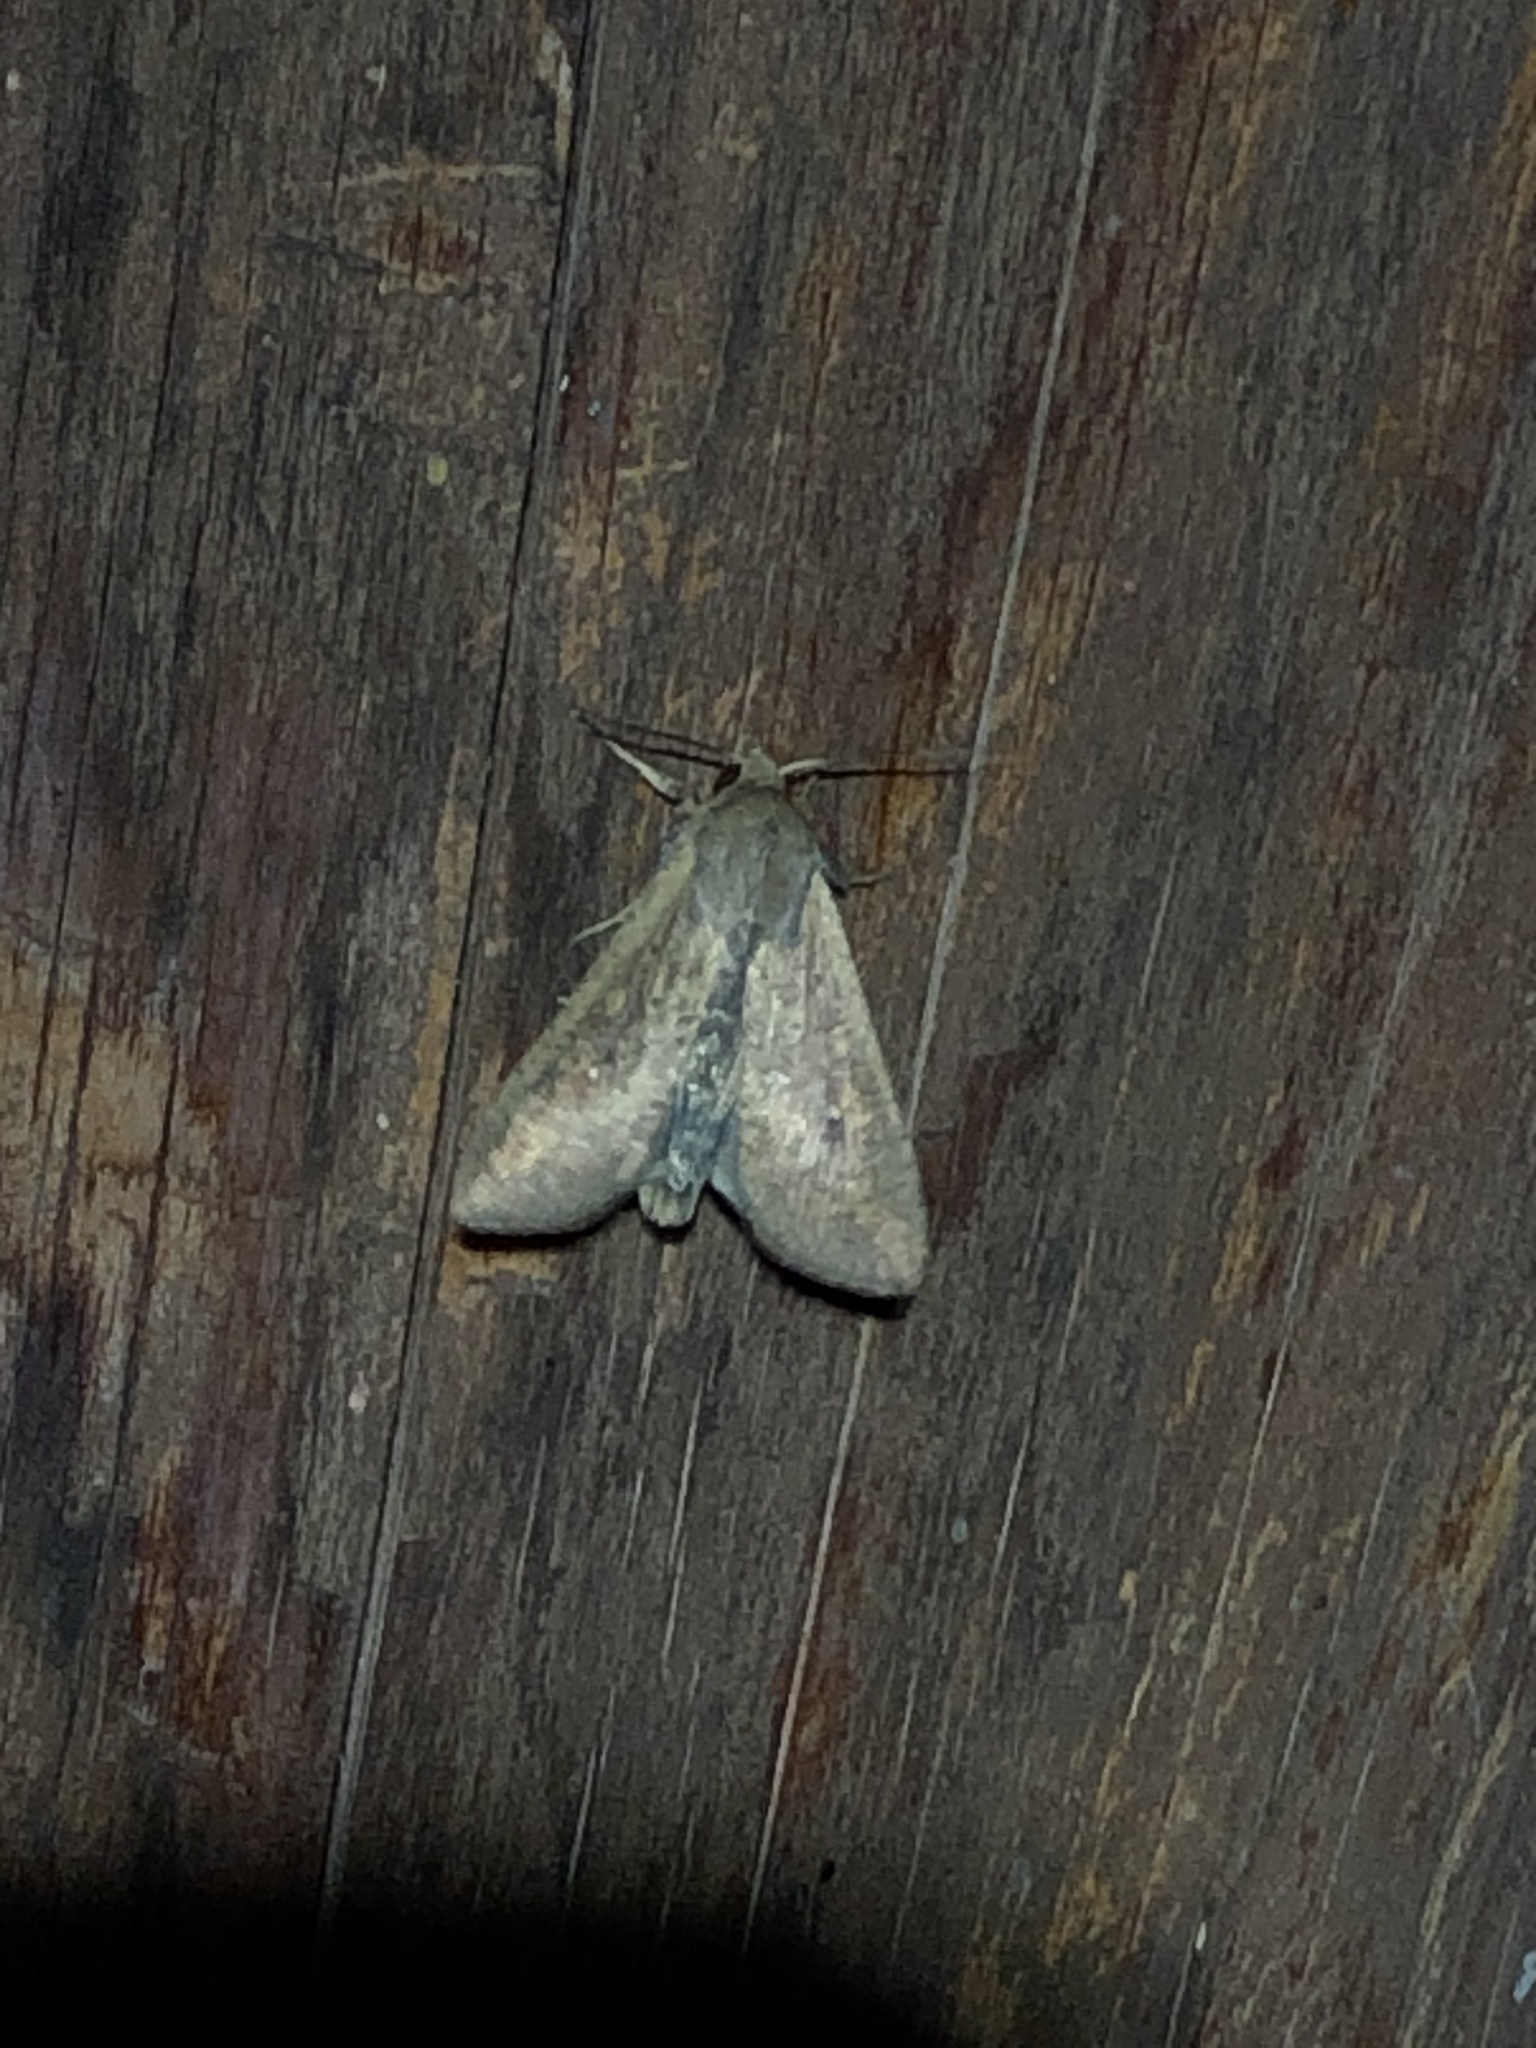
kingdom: Animalia
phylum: Arthropoda
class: Insecta
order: Lepidoptera
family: Noctuidae
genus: Mythimna
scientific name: Mythimna unipuncta
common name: White-speck
